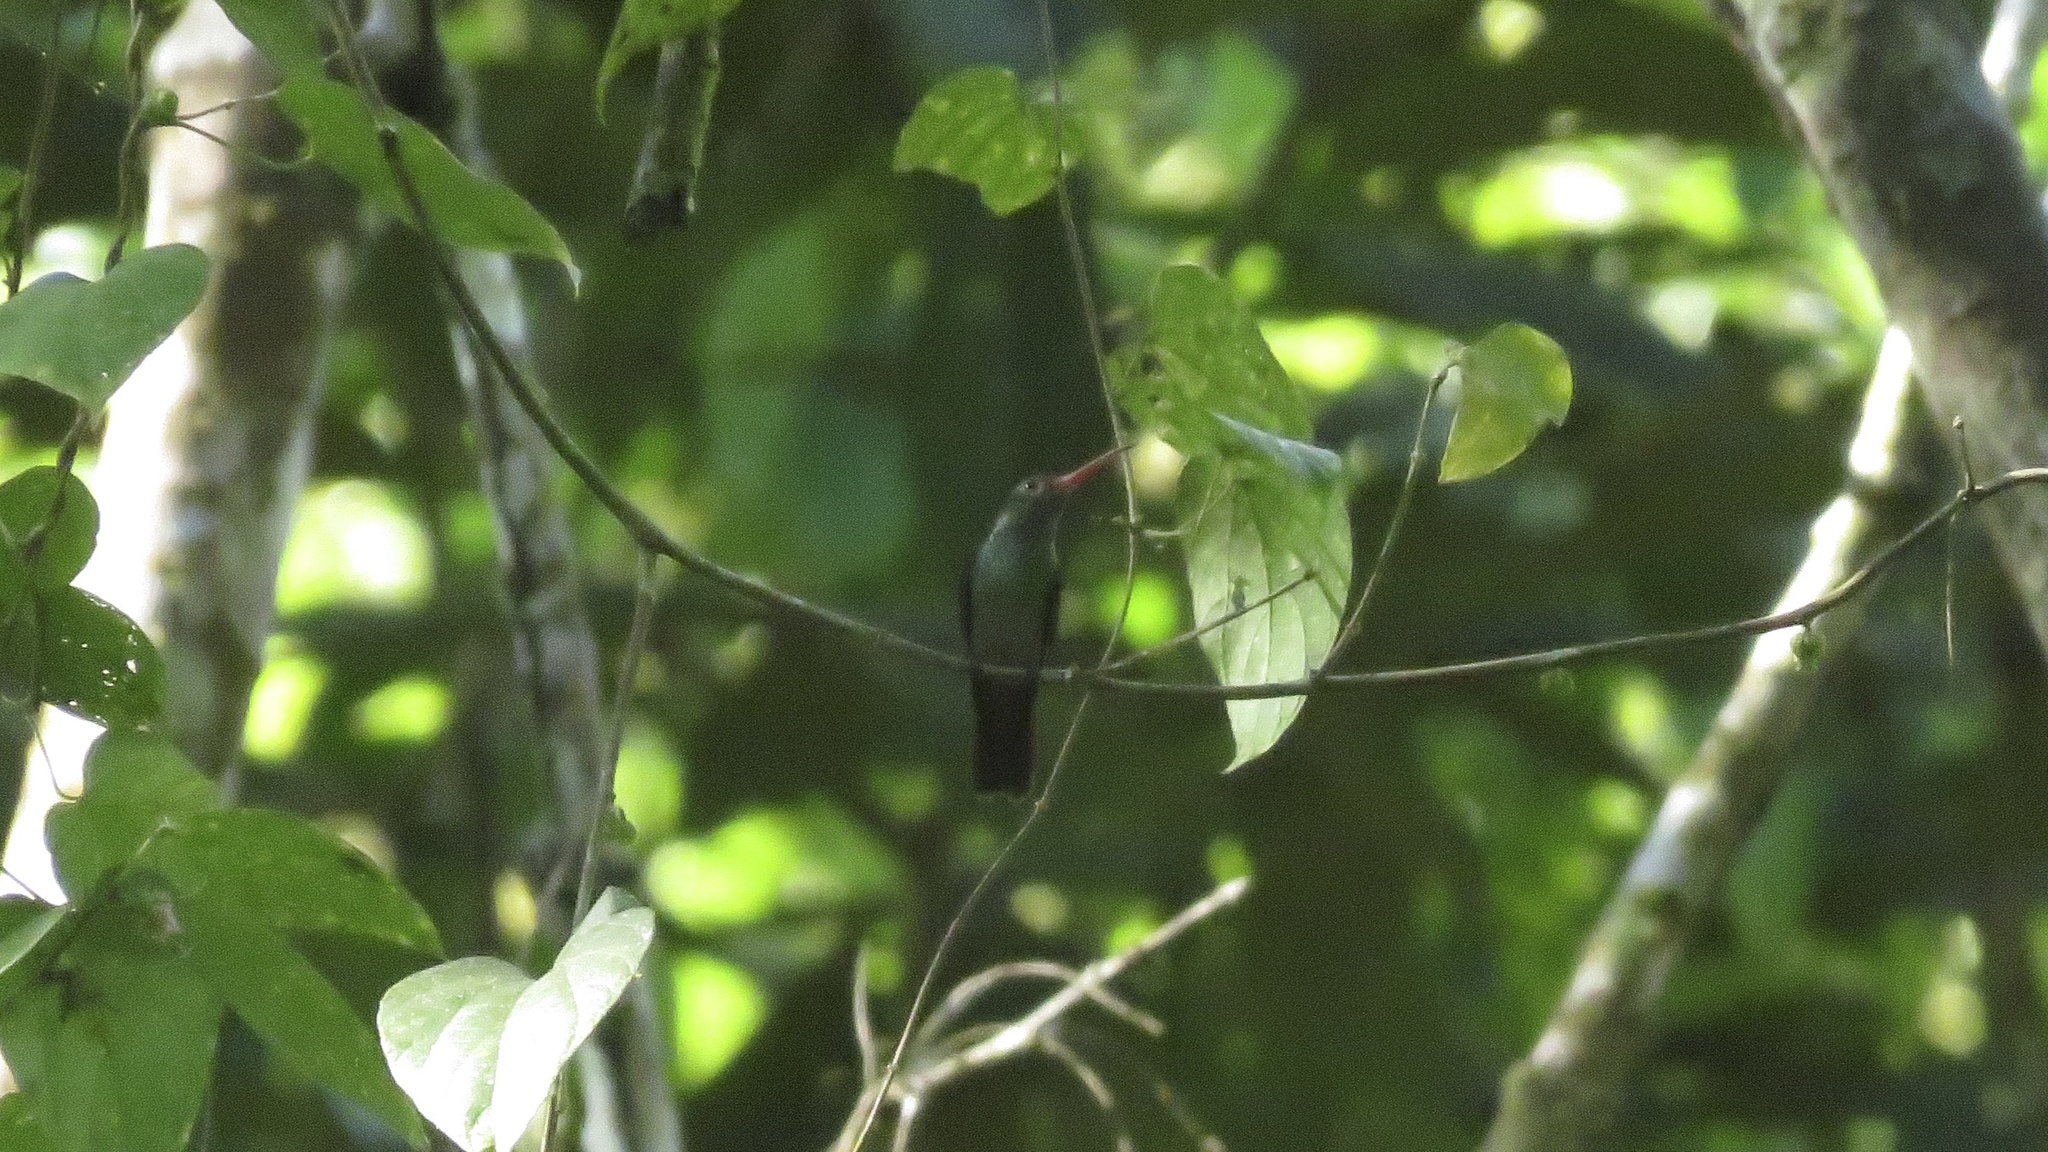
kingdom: Animalia
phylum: Chordata
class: Aves
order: Apodiformes
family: Trochilidae
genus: Chlorestes
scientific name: Chlorestes eliciae
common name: Blue-throated sapphire
